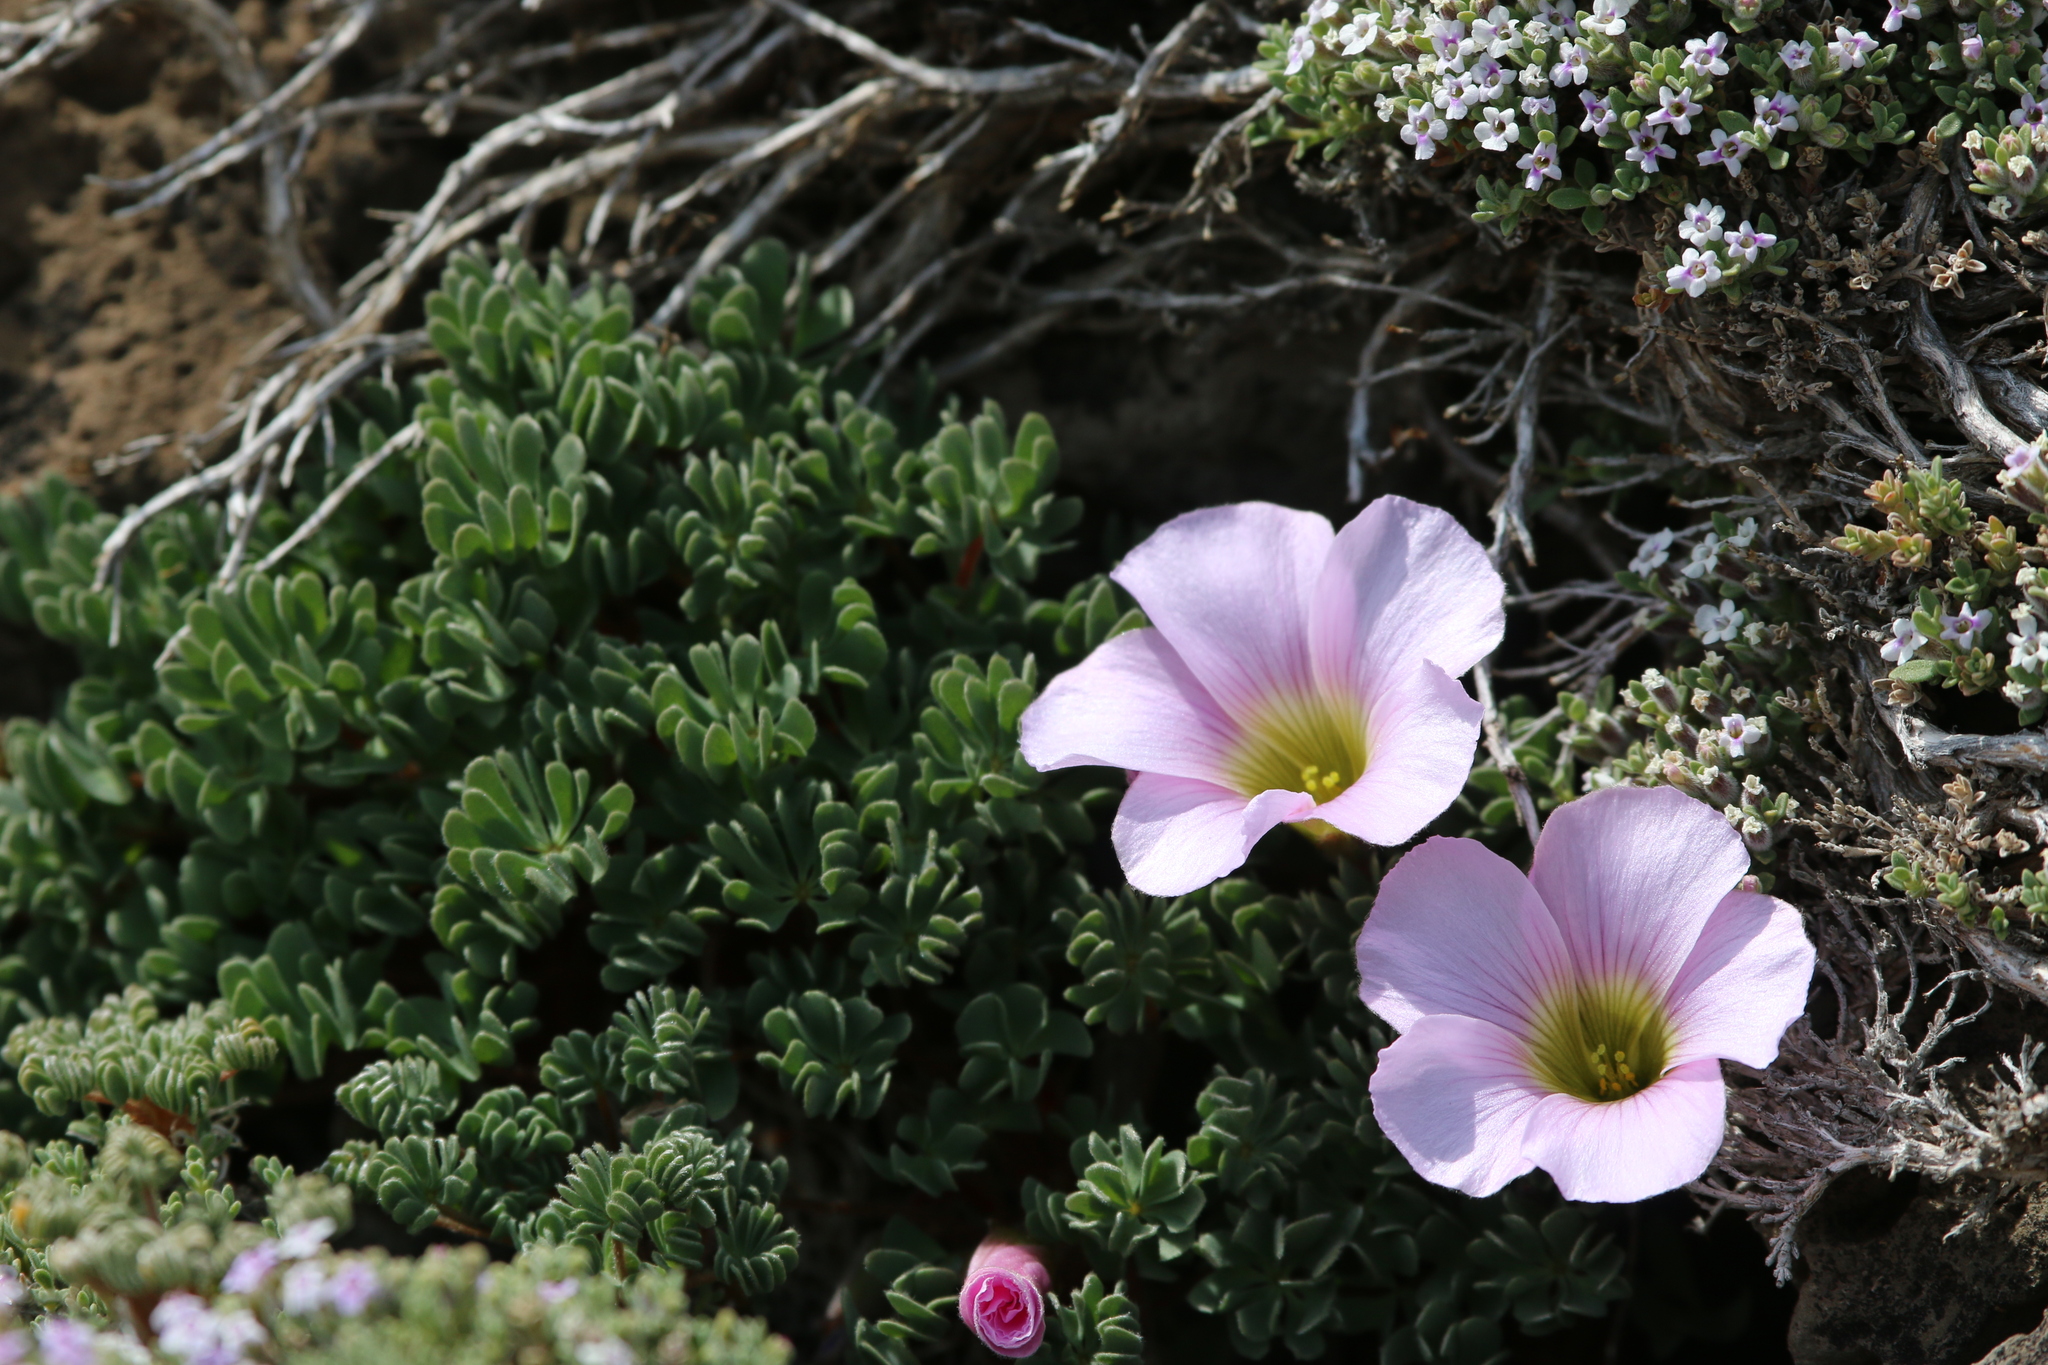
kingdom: Plantae
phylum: Tracheophyta
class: Magnoliopsida
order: Oxalidales
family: Oxalidaceae
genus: Oxalis
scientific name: Oxalis enneaphylla
